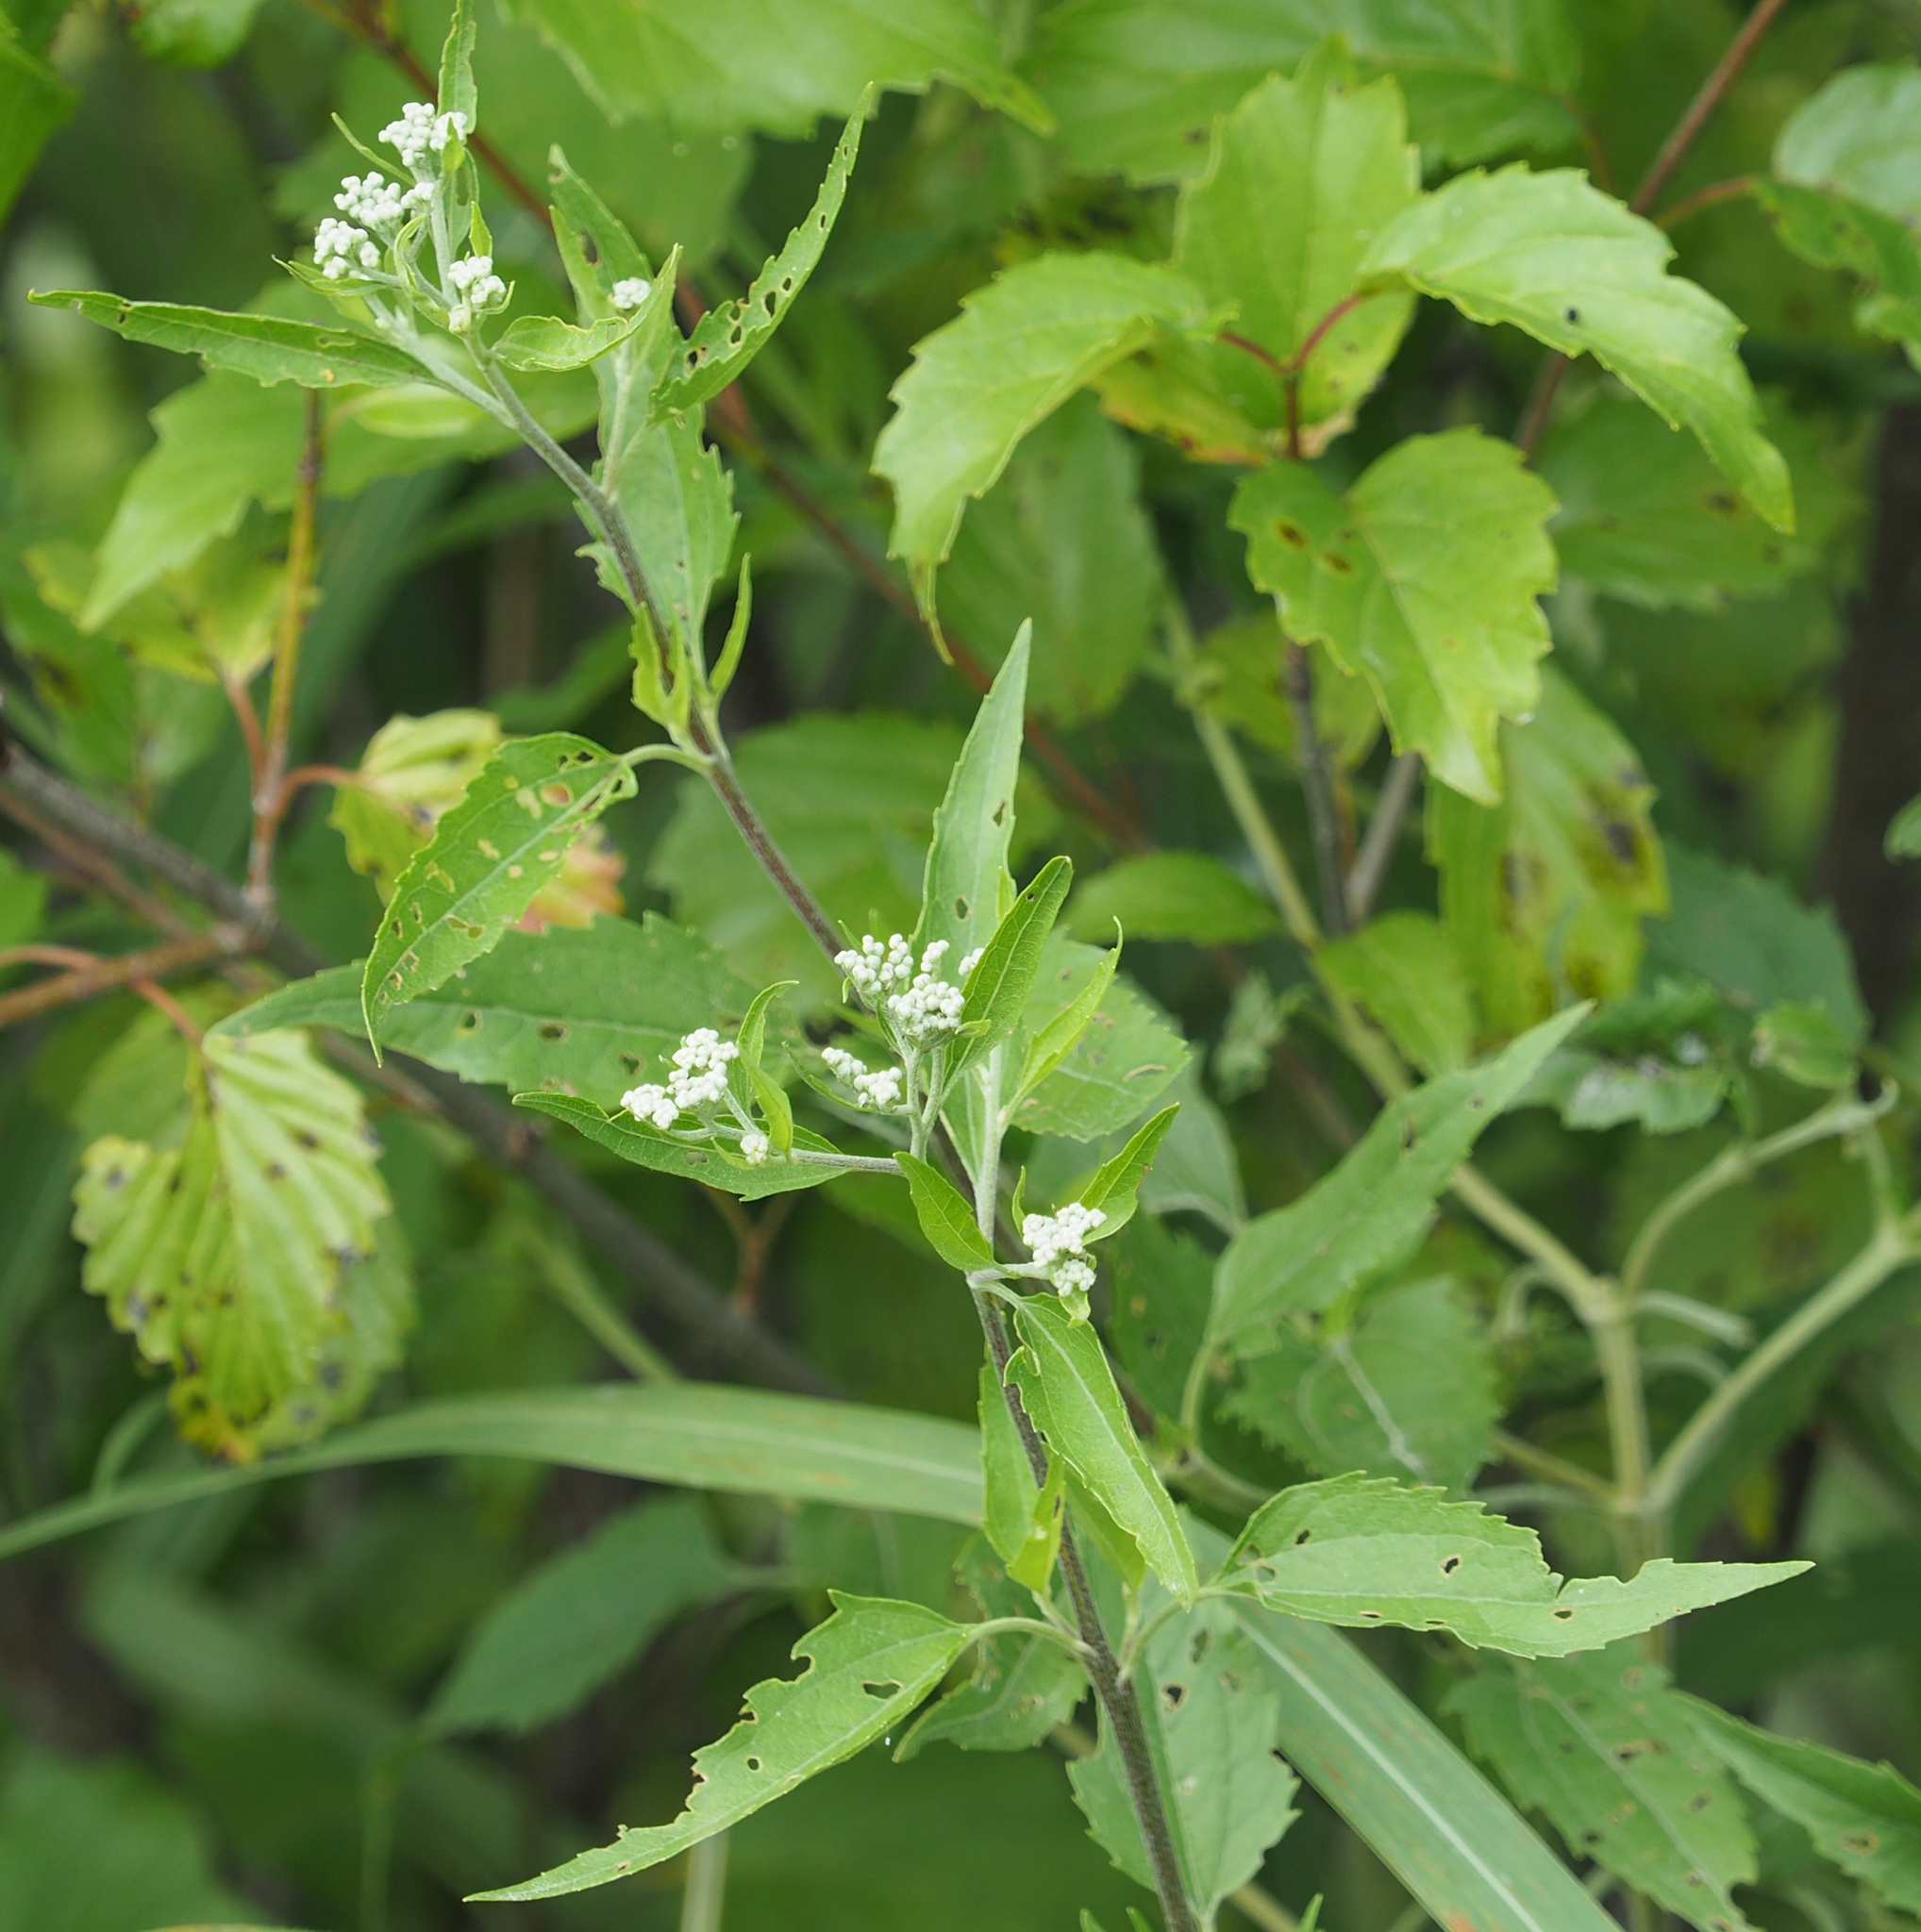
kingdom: Plantae
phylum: Tracheophyta
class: Magnoliopsida
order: Asterales
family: Asteraceae
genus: Eupatorium
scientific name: Eupatorium serotinum
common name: Late boneset
